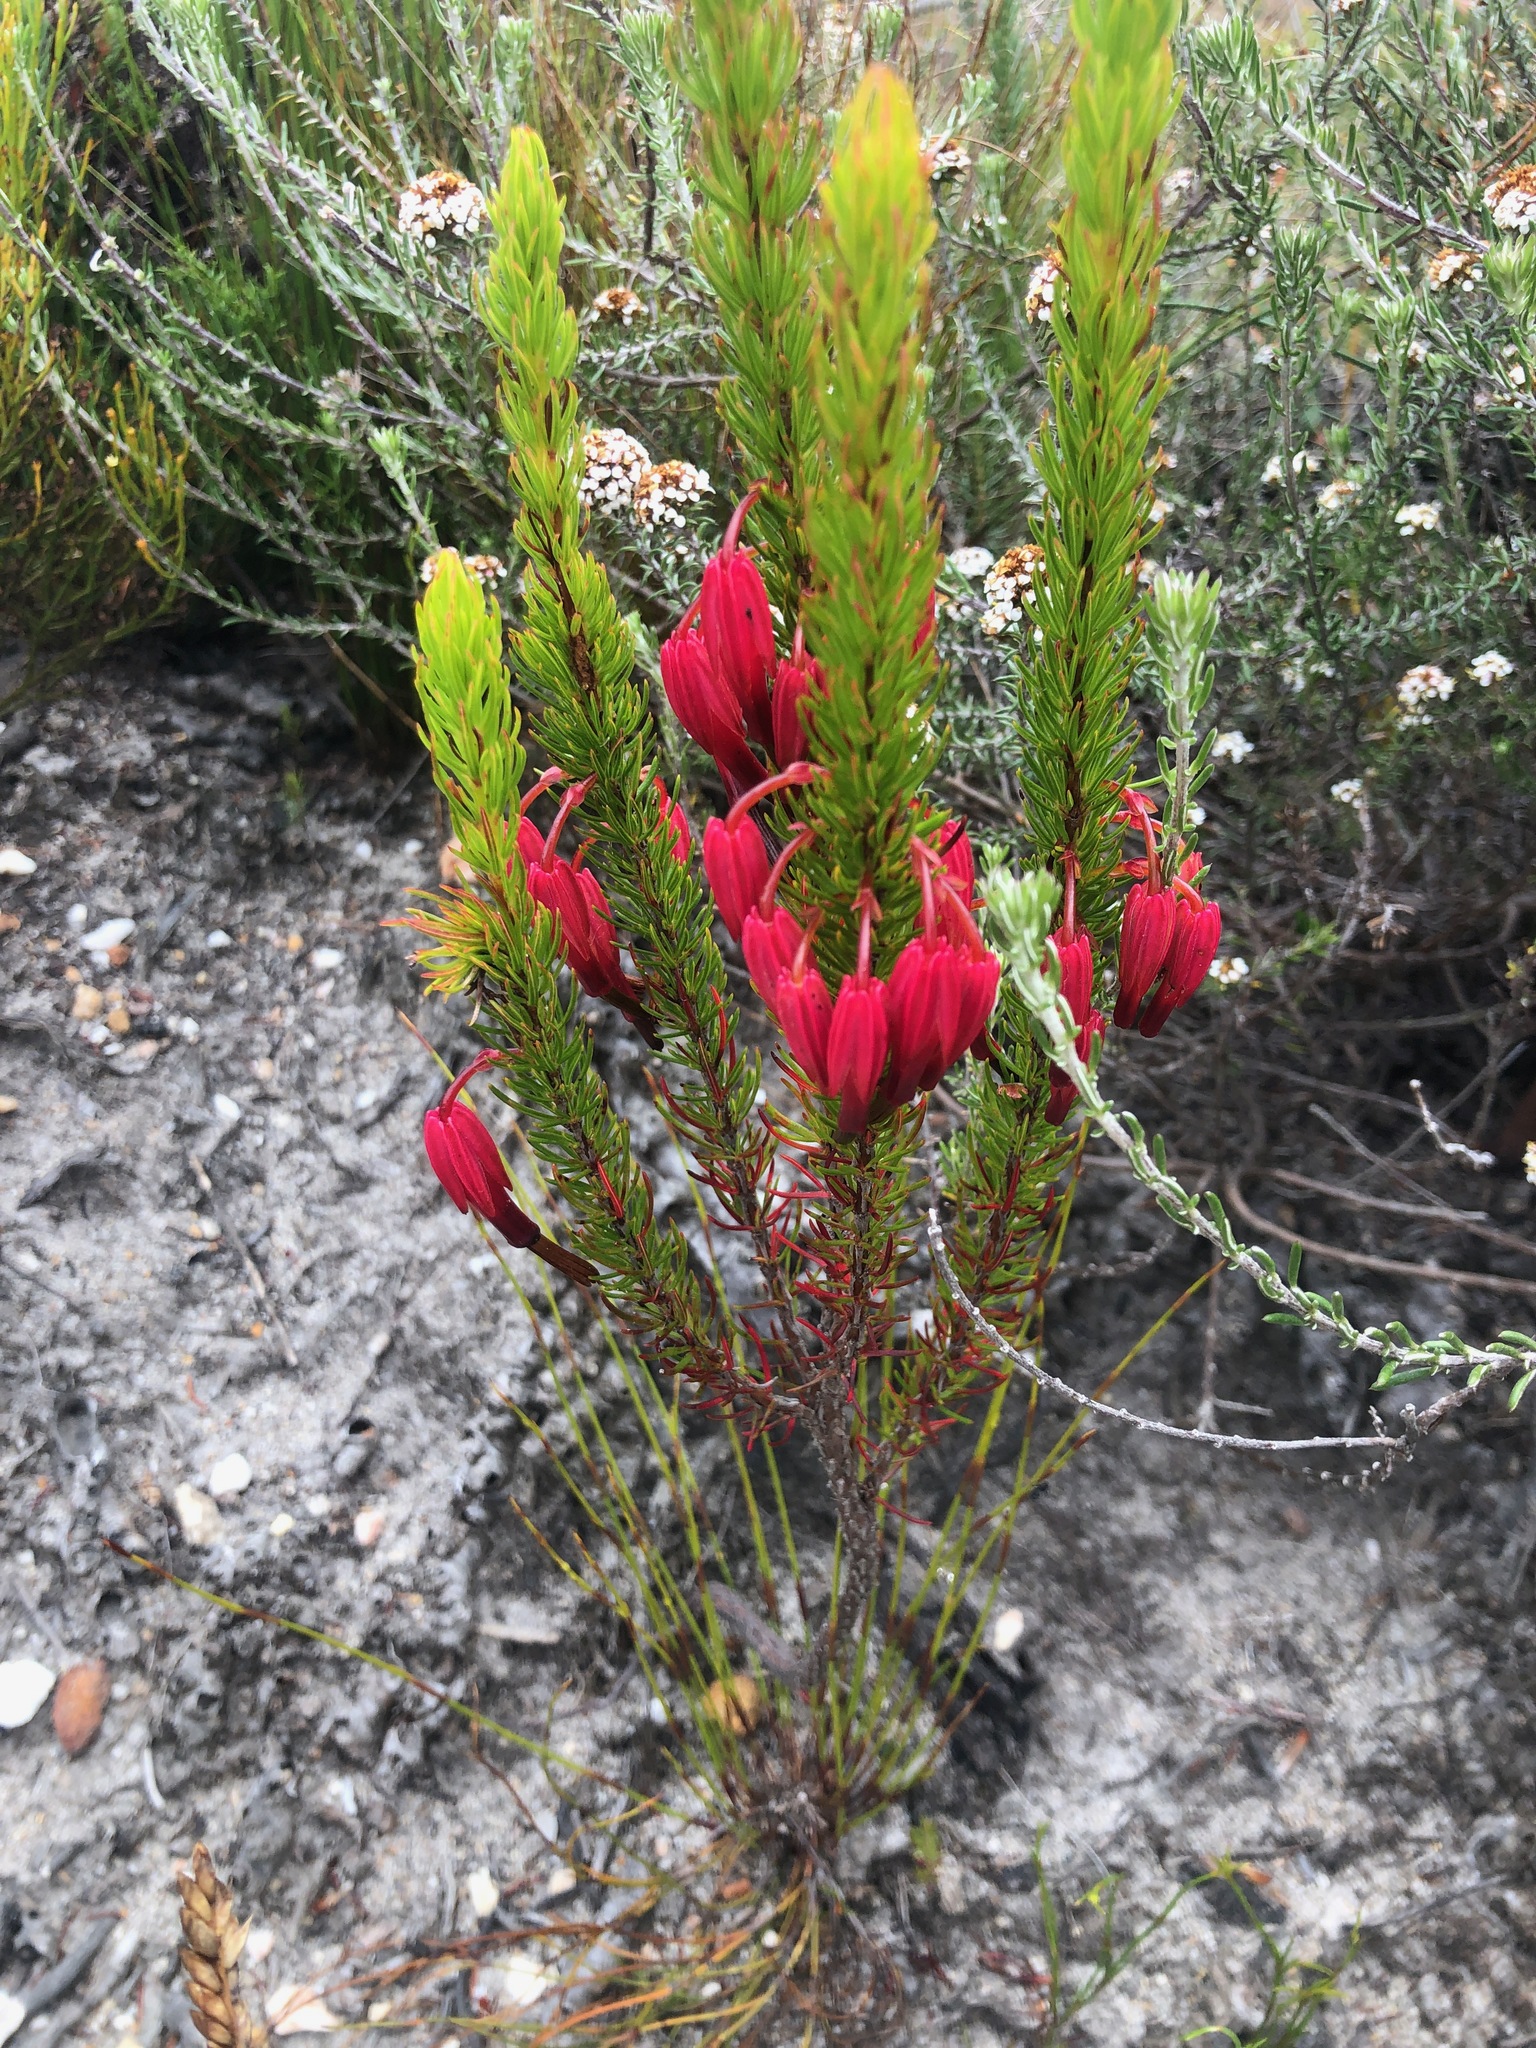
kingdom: Plantae
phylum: Tracheophyta
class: Magnoliopsida
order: Ericales
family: Ericaceae
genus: Erica
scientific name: Erica plukenetii
